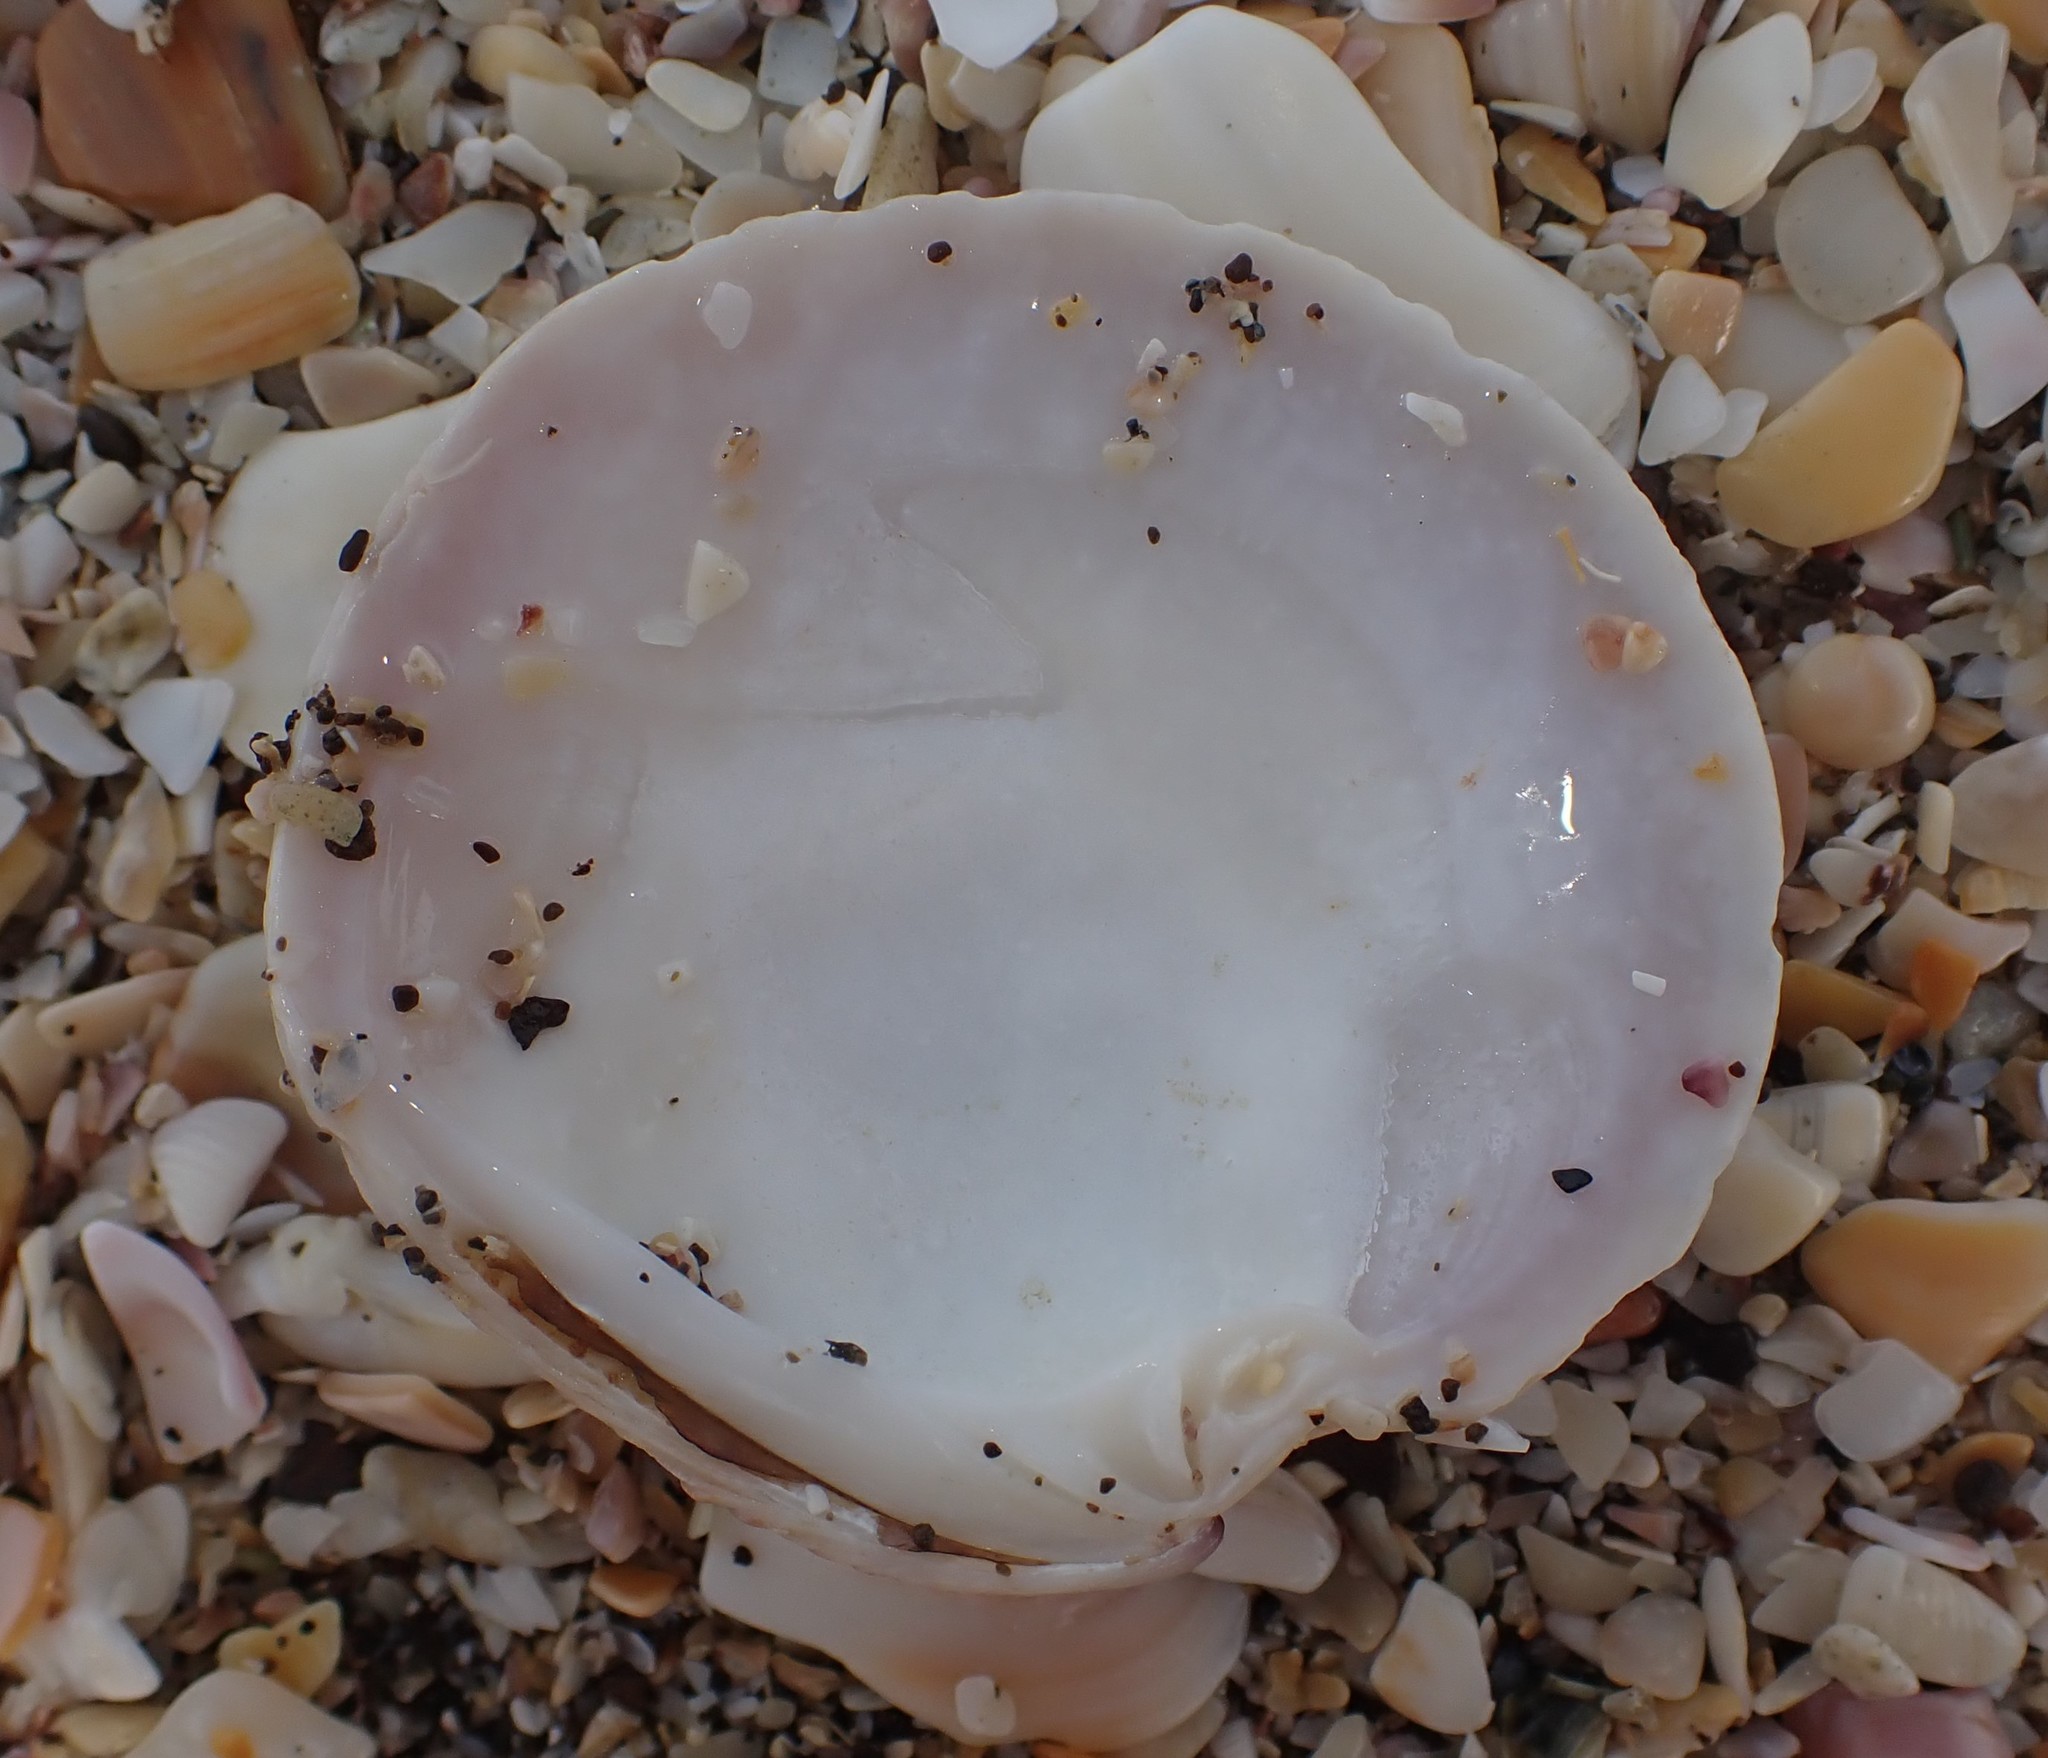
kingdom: Animalia
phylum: Mollusca
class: Bivalvia
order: Venerida
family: Veneridae
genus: Dosinia
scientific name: Dosinia anus
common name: Old-woman dosinia
